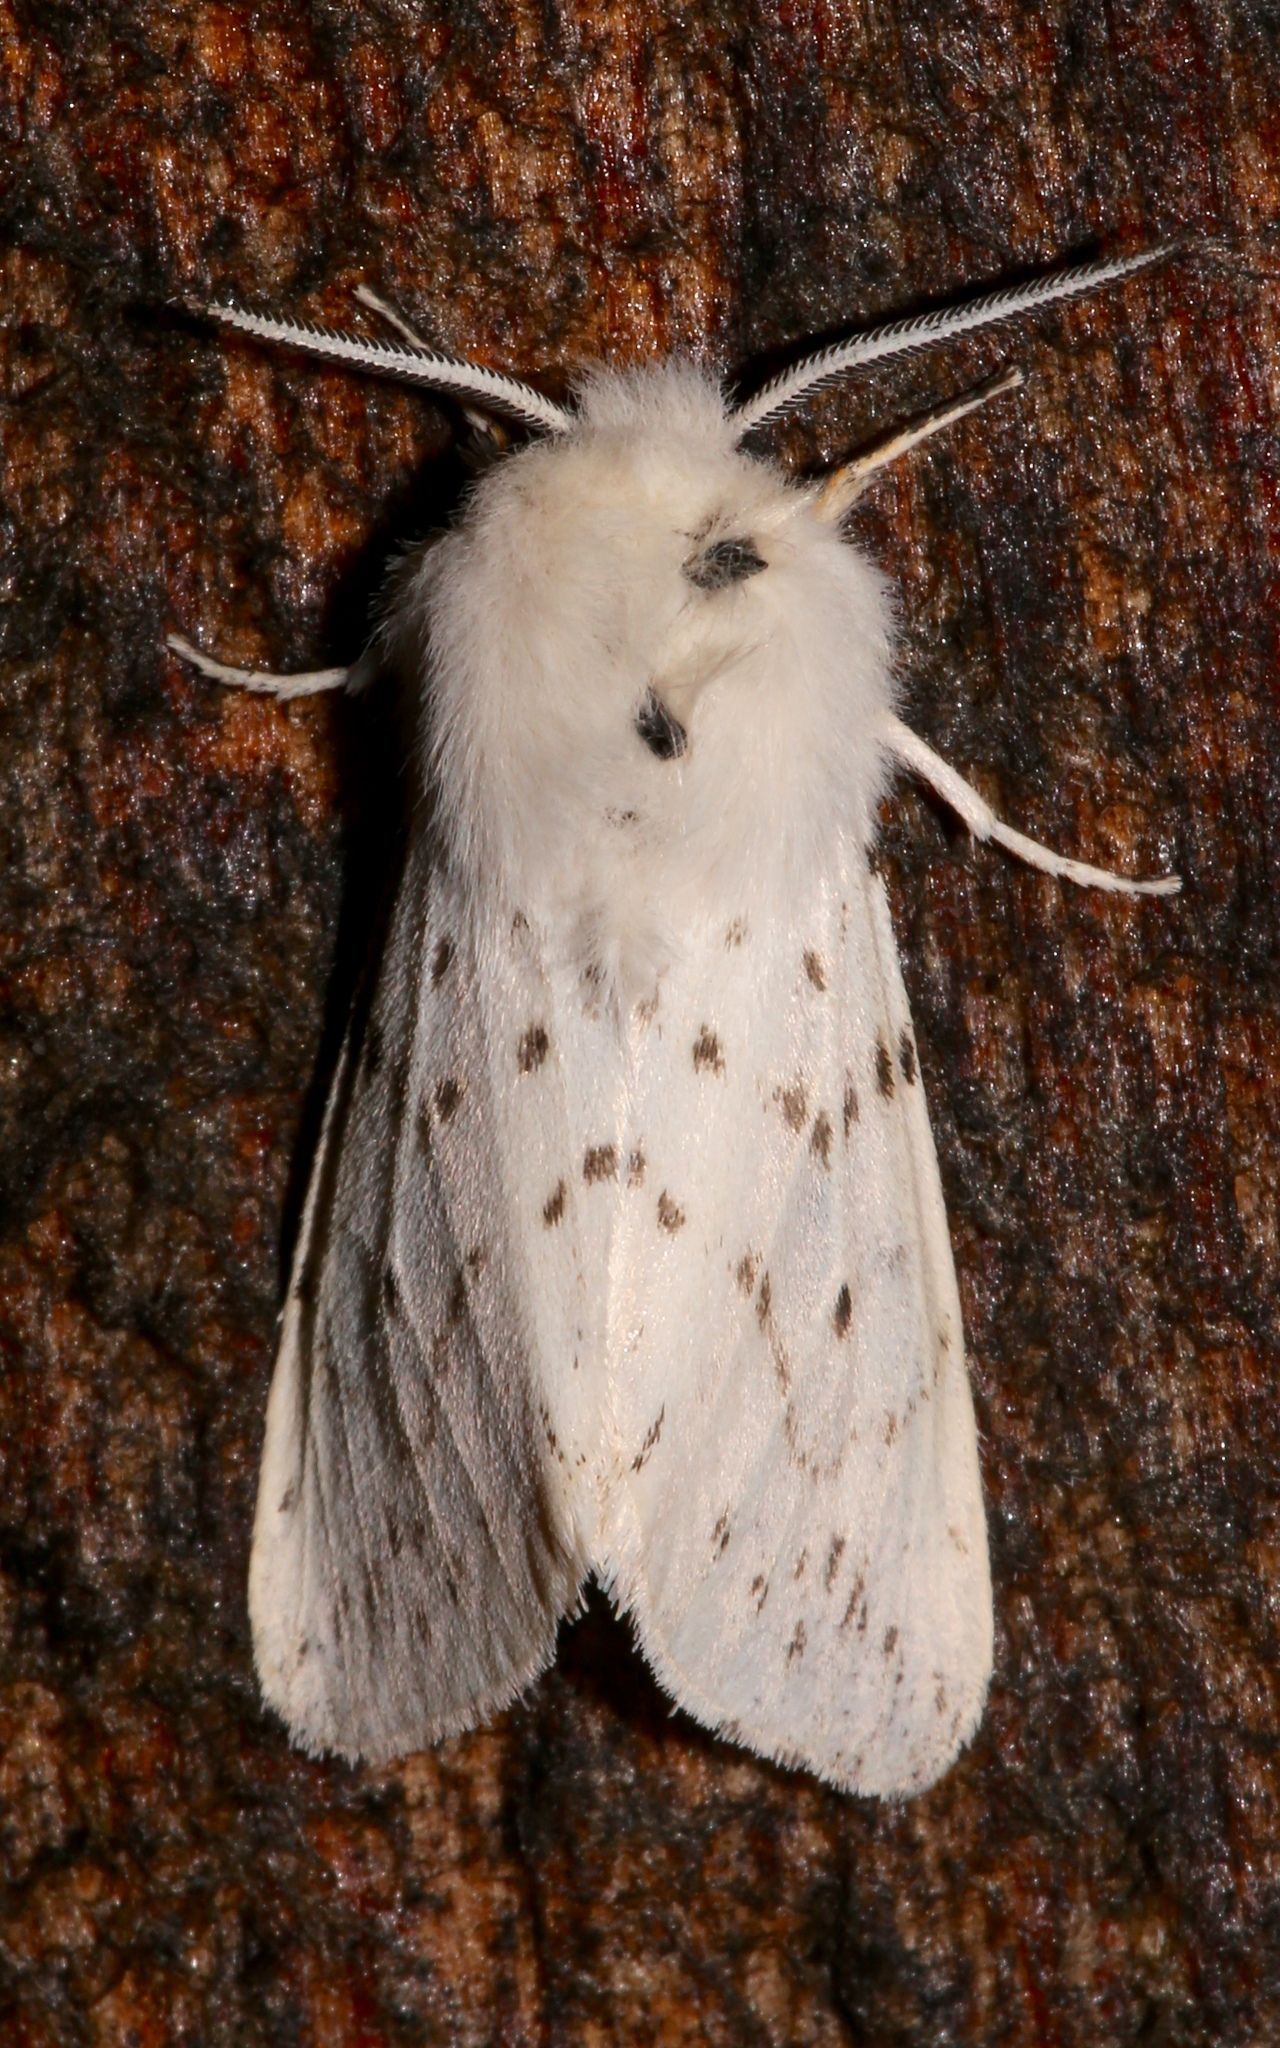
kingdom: Animalia
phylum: Arthropoda
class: Insecta
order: Lepidoptera
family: Erebidae
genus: Spilosoma
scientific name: Spilosoma dubia
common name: Dubious tiger moth
